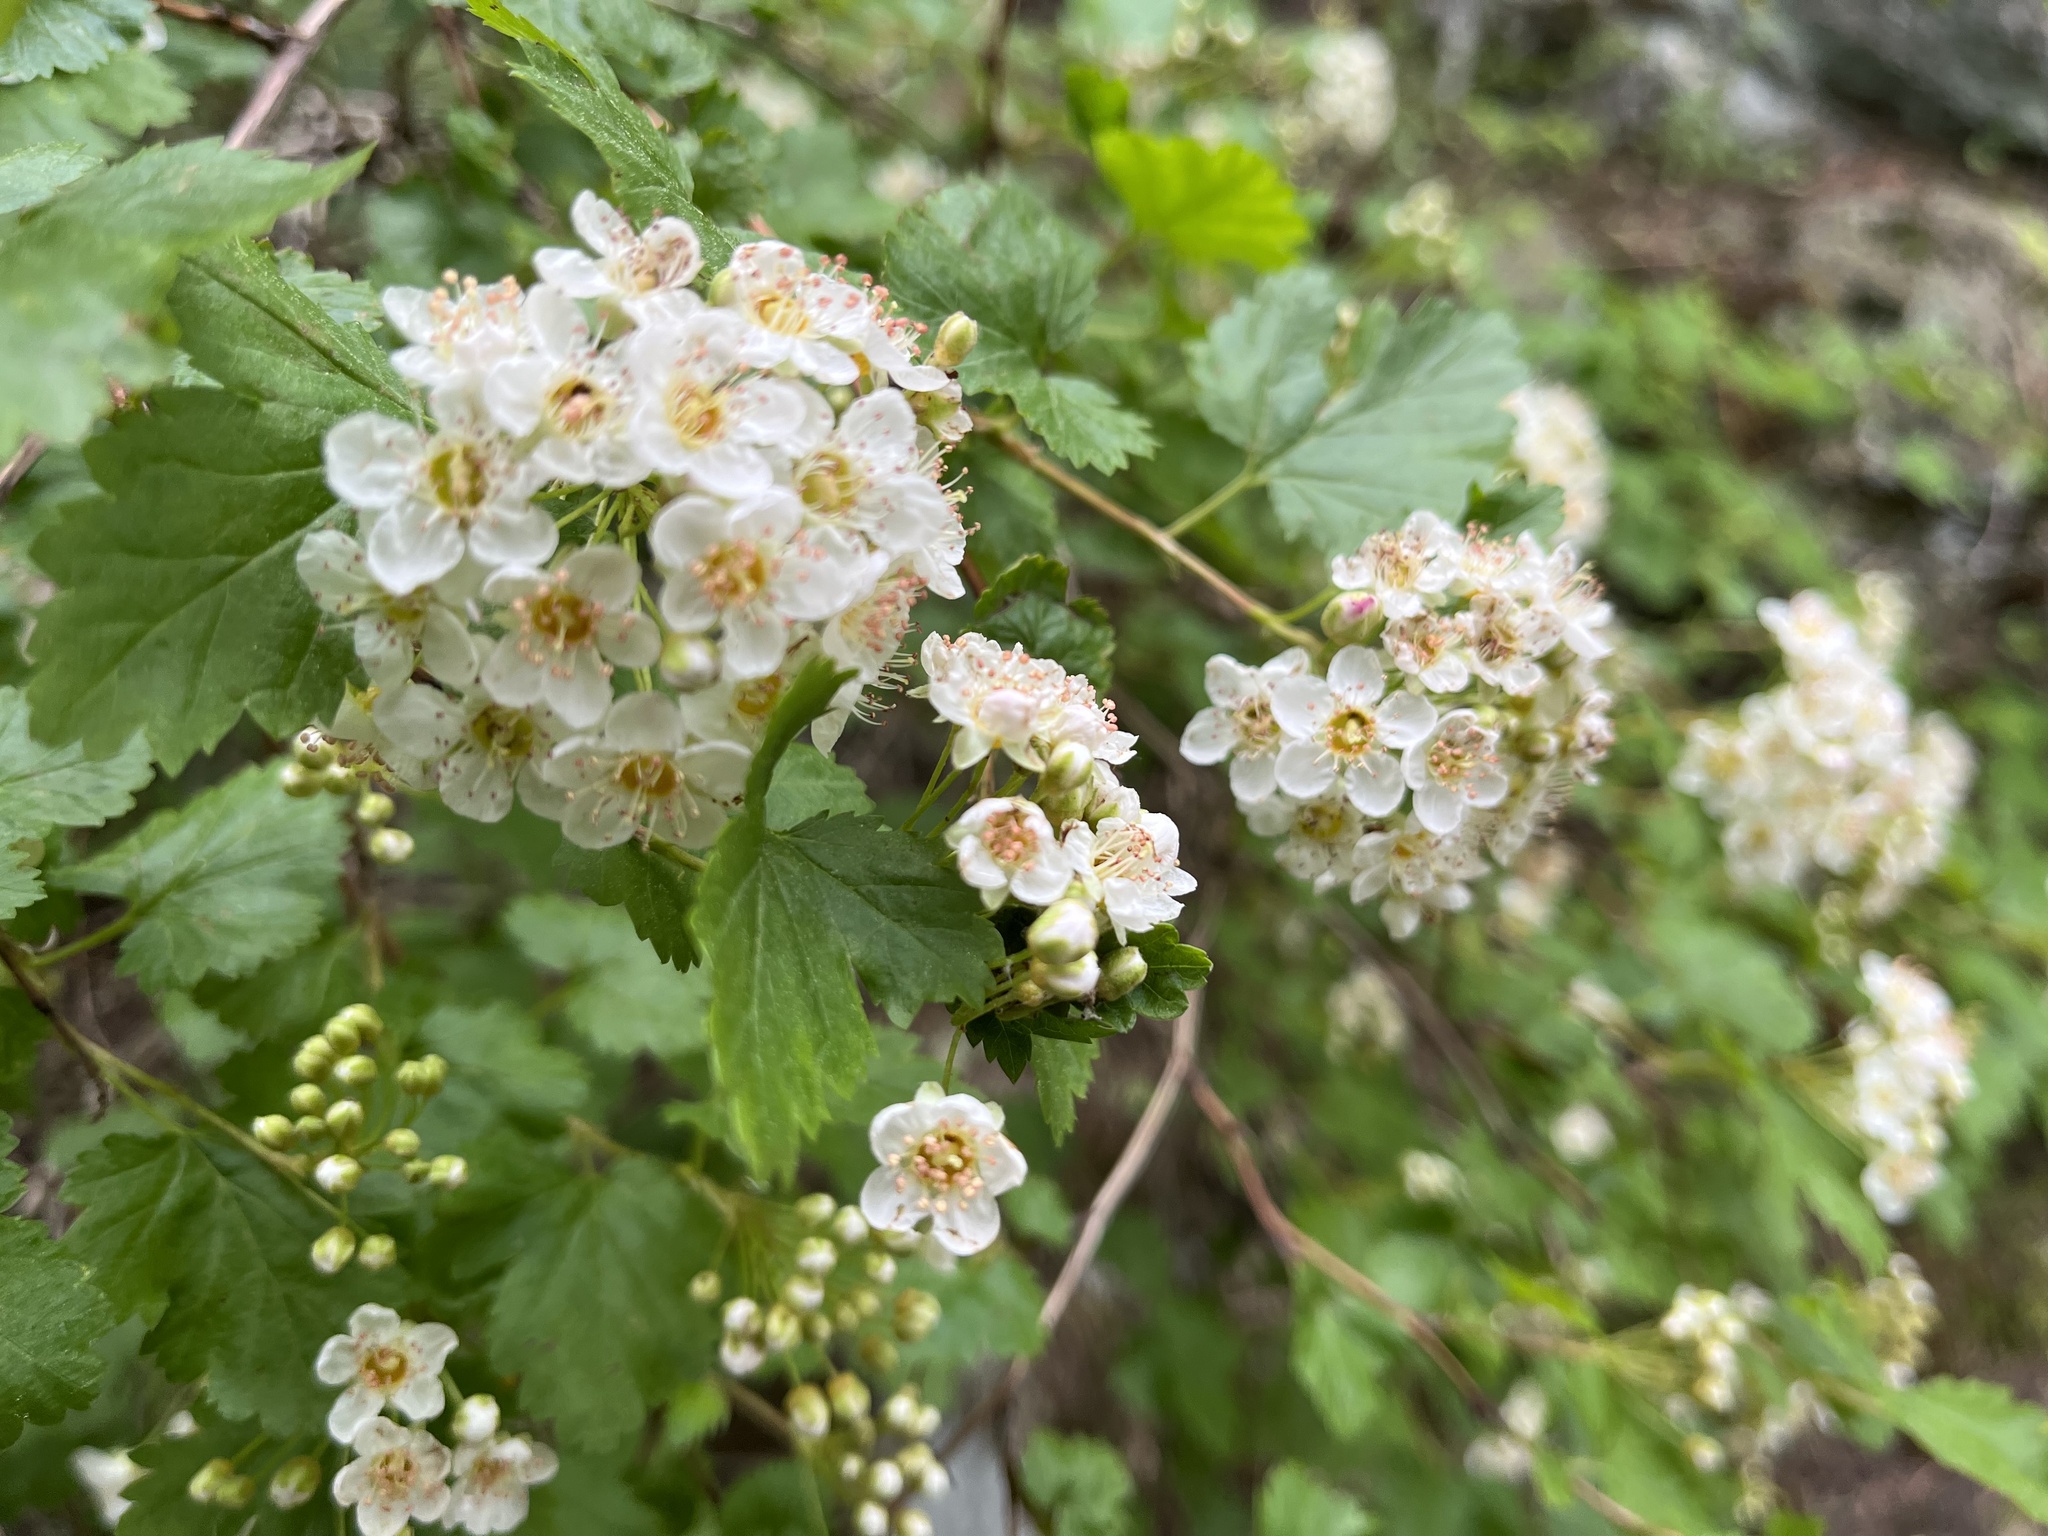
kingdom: Plantae
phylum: Tracheophyta
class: Magnoliopsida
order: Rosales
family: Rosaceae
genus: Physocarpus
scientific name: Physocarpus monogynus
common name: Mountain ninebark
